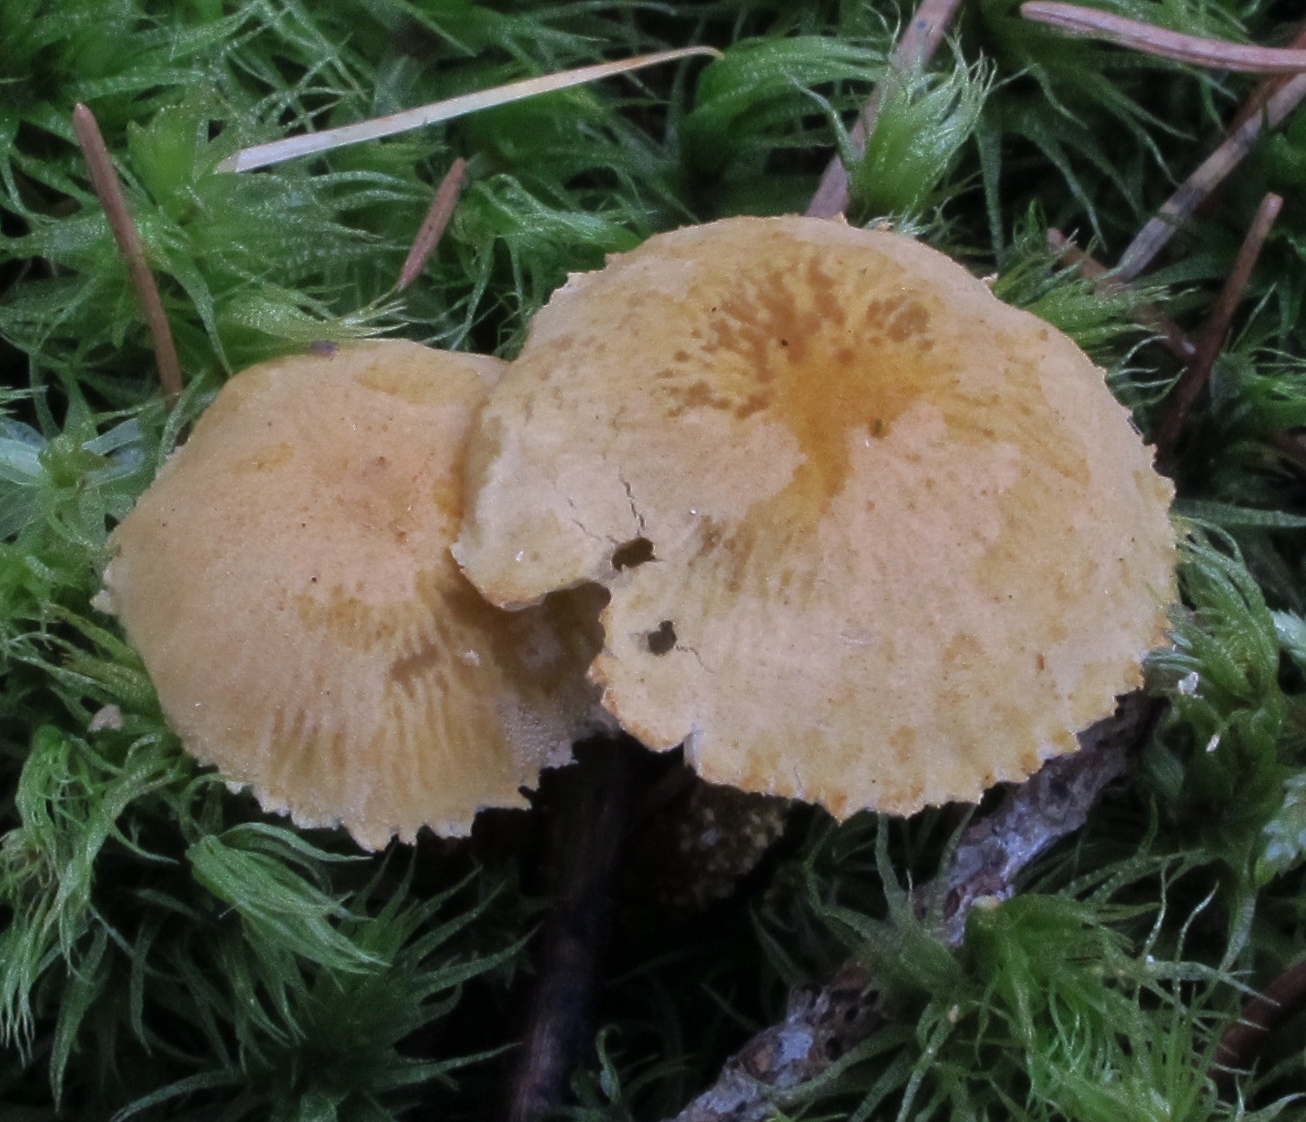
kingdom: Fungi
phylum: Basidiomycota
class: Agaricomycetes
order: Agaricales
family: Tricholomataceae
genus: Cystoderma
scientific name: Cystoderma amianthinum
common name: Earthy powdercap
